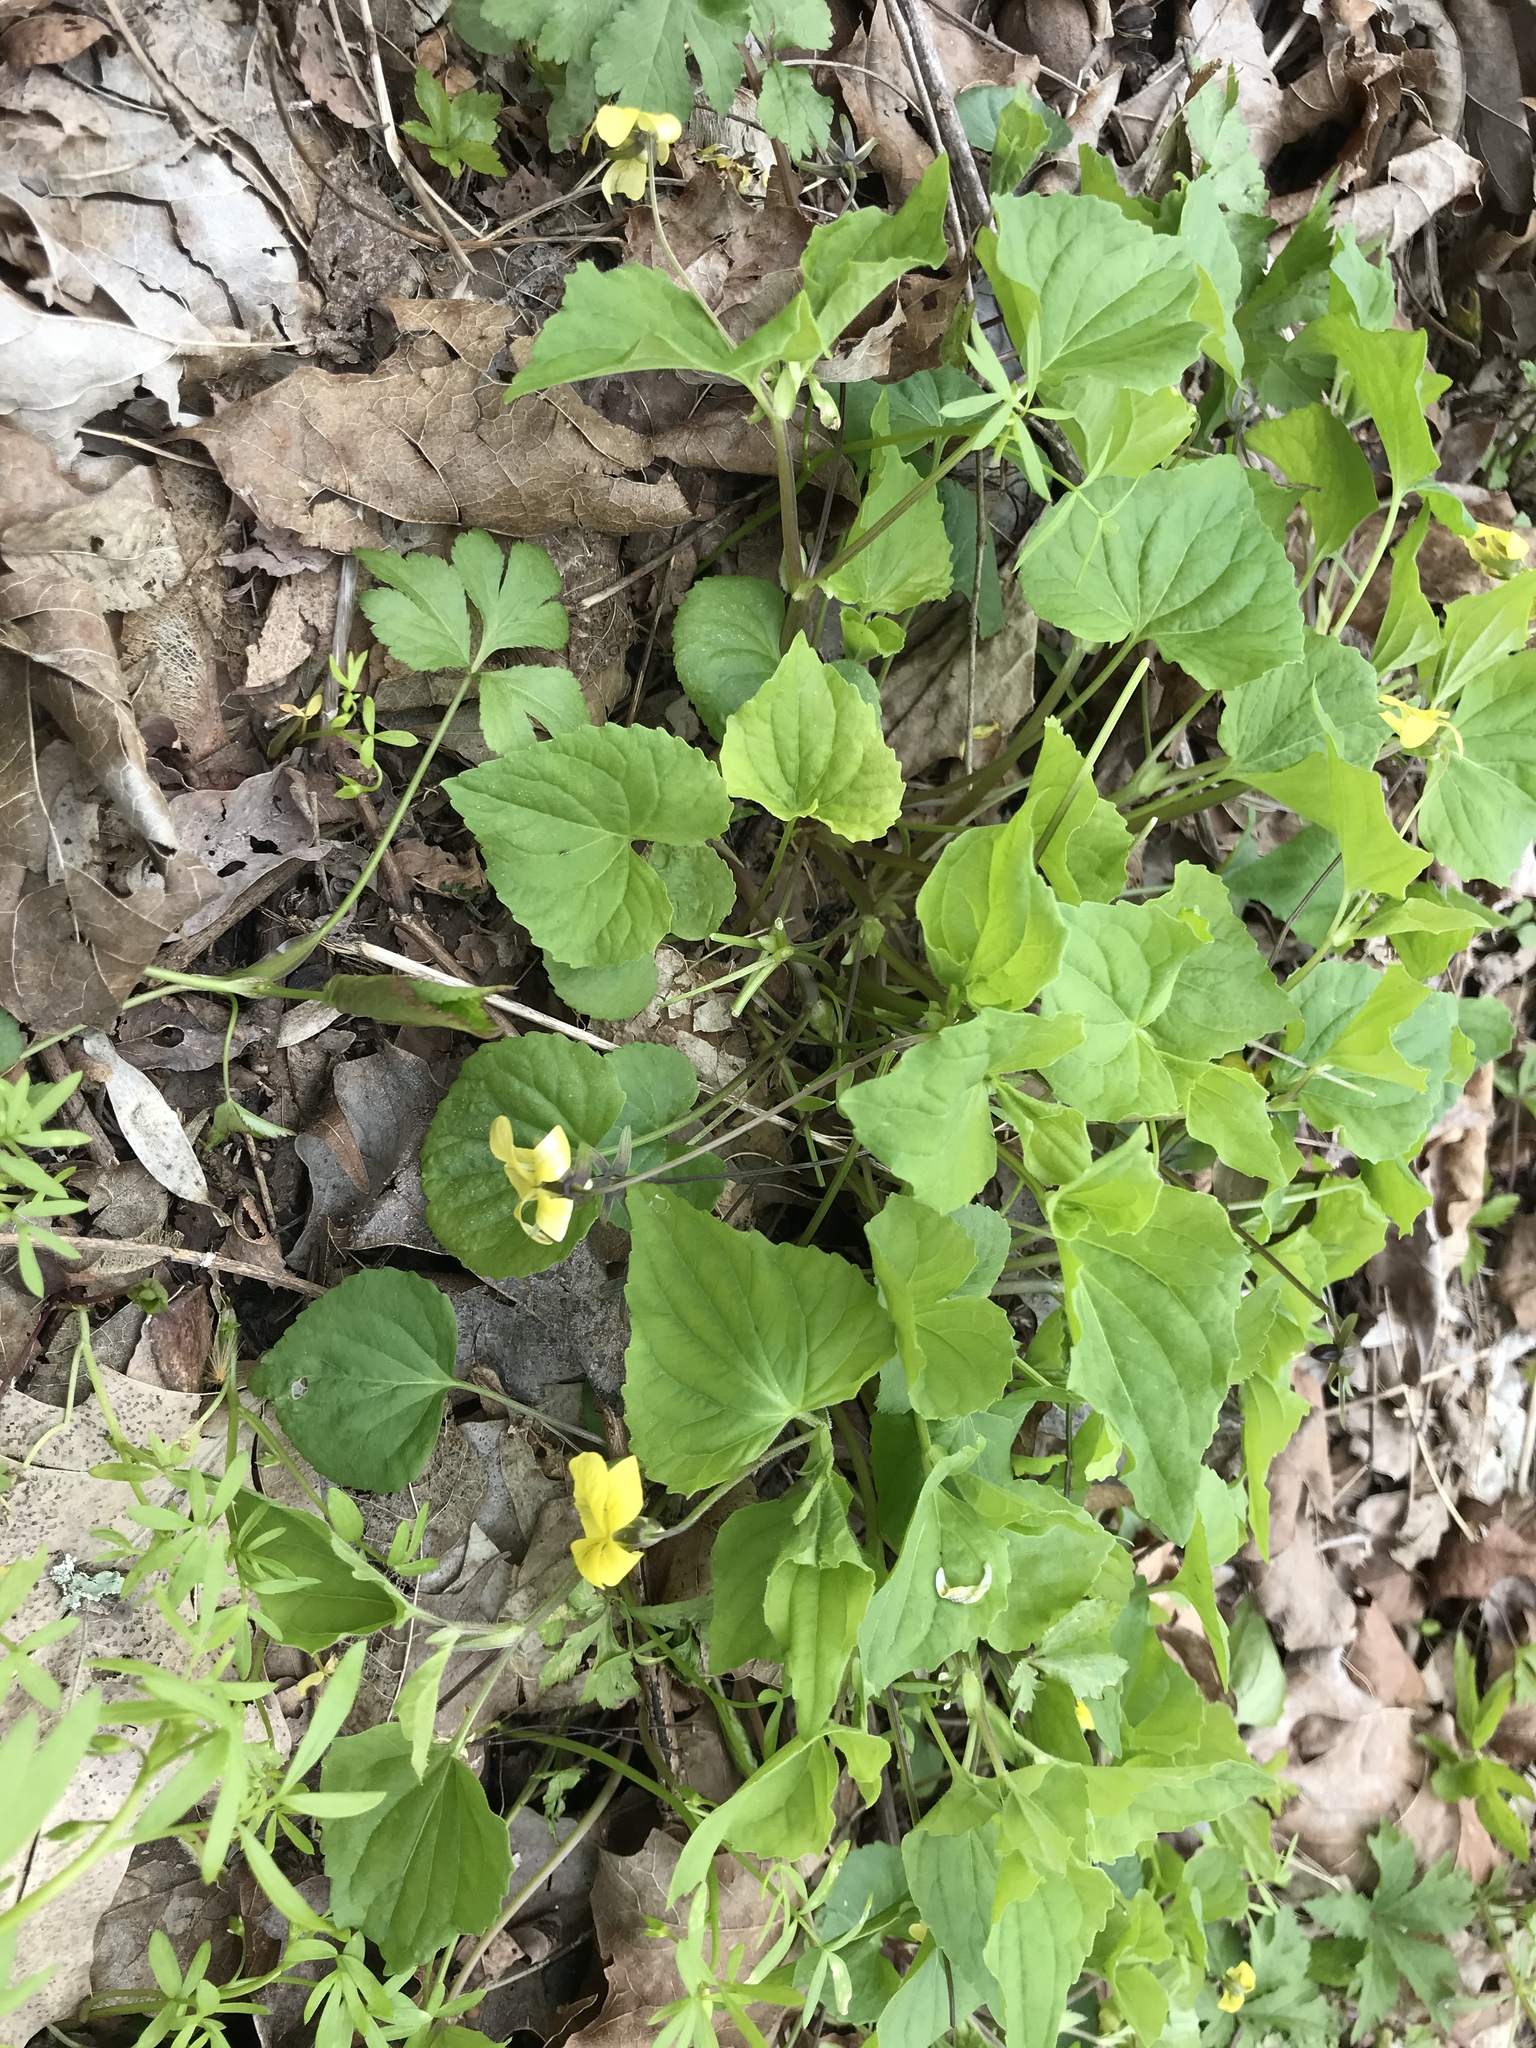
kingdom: Plantae
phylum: Tracheophyta
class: Magnoliopsida
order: Malpighiales
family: Violaceae
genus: Viola
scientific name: Viola eriocarpa
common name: Smooth yellow violet
